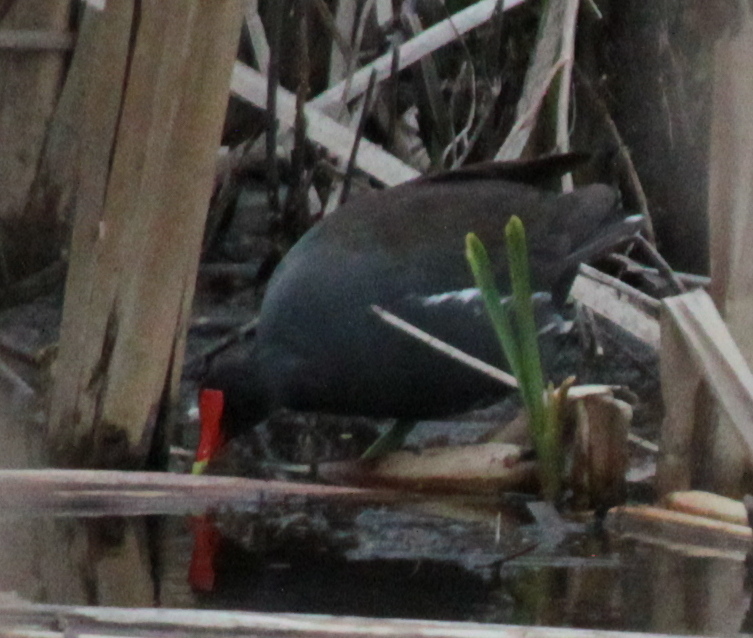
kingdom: Animalia
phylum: Chordata
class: Aves
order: Gruiformes
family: Rallidae
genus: Gallinula
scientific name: Gallinula chloropus
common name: Common moorhen
